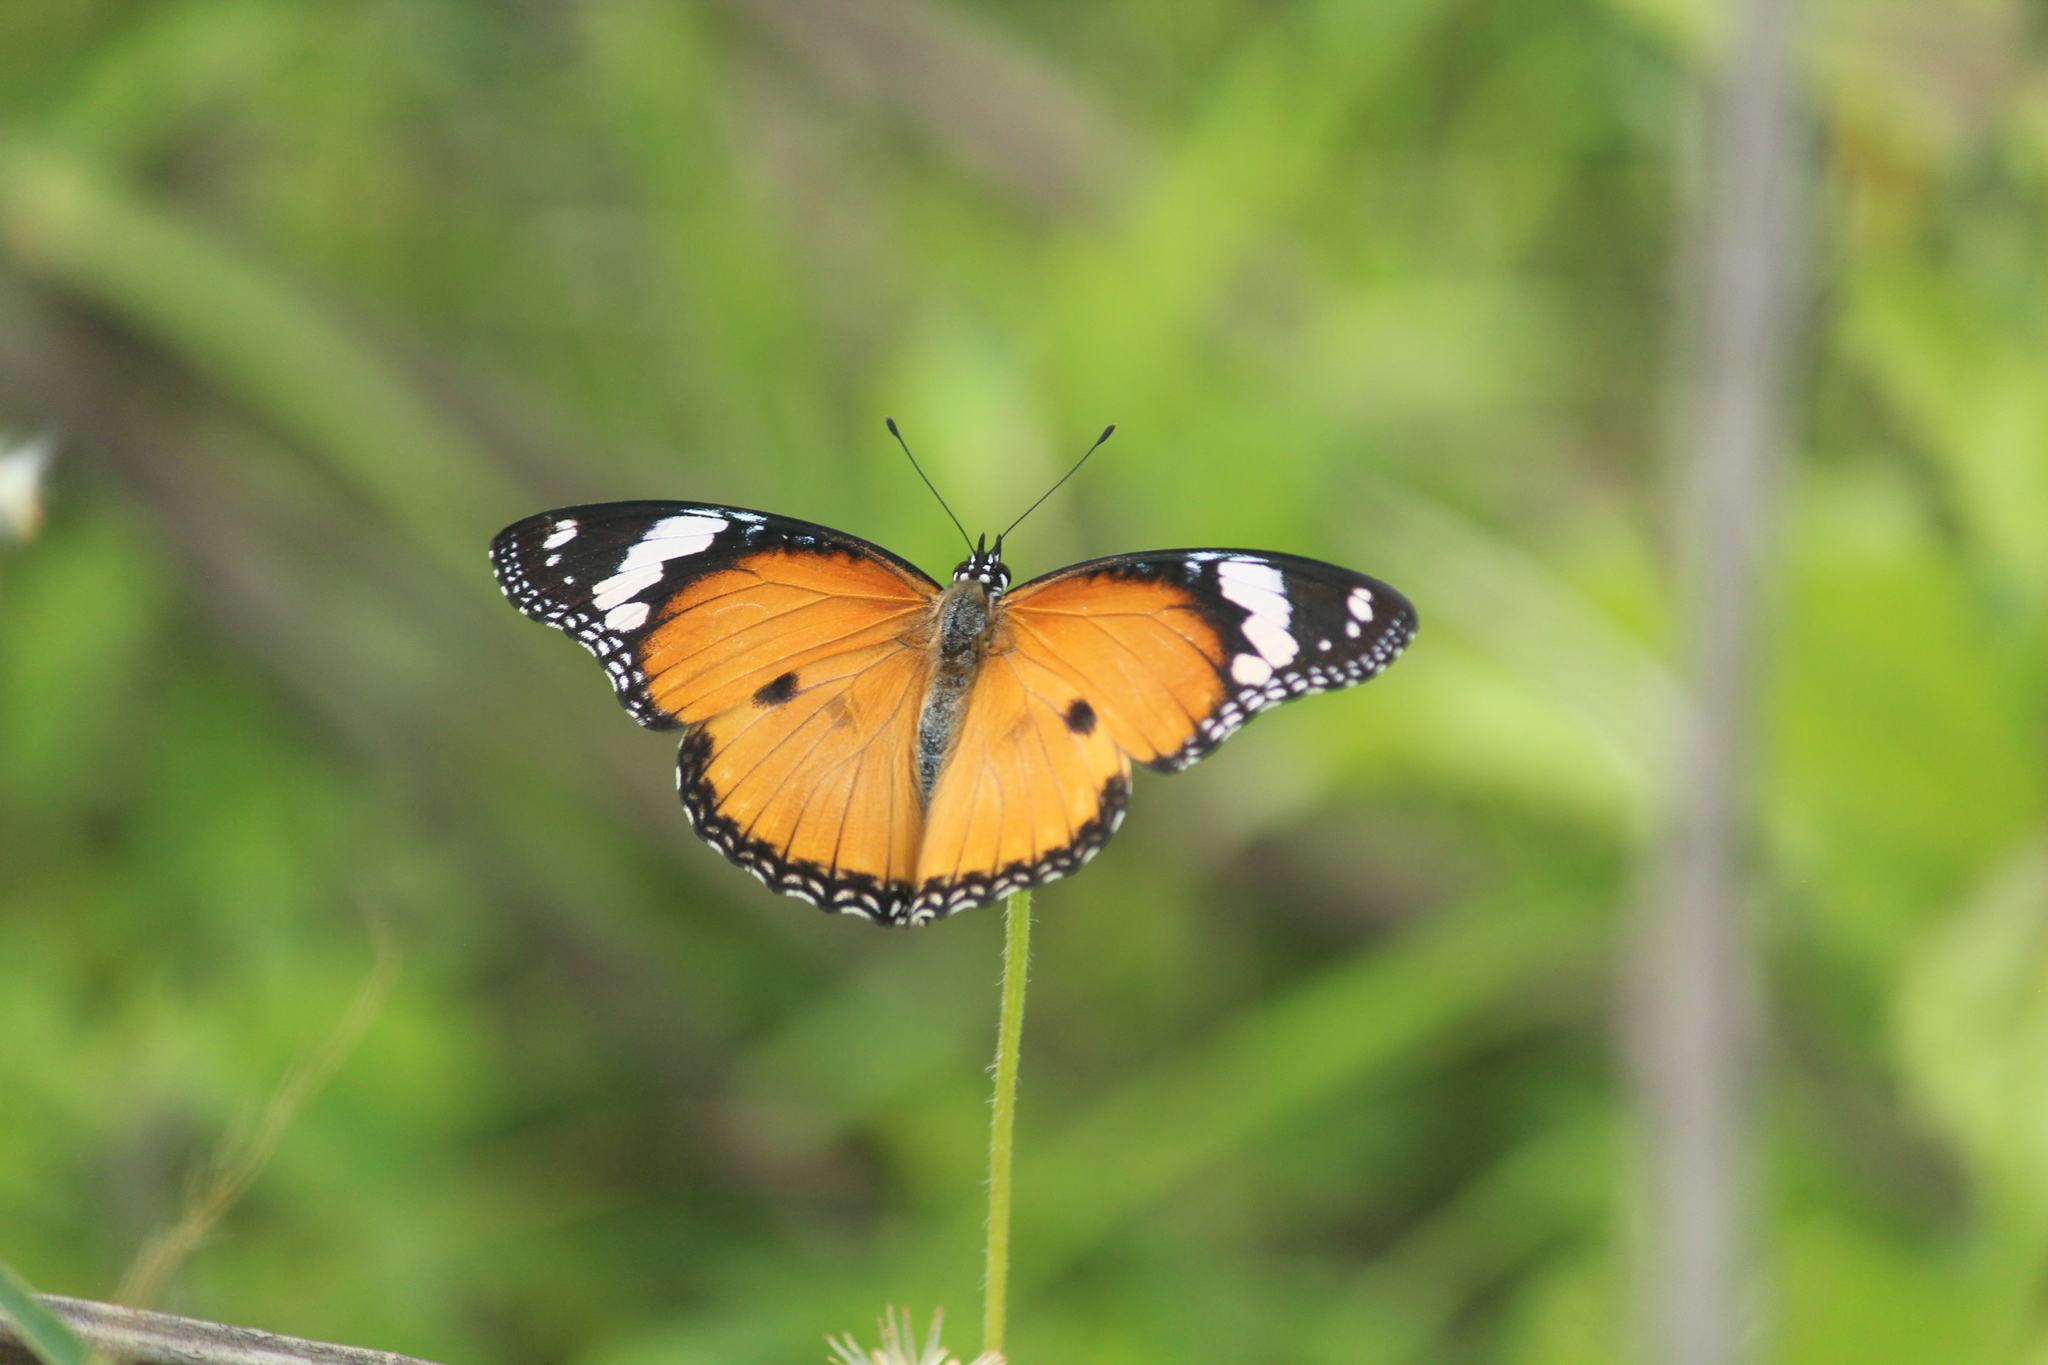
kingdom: Animalia
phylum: Arthropoda
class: Insecta
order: Lepidoptera
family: Nymphalidae
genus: Hypolimnas
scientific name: Hypolimnas misippus
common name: False plain tiger
